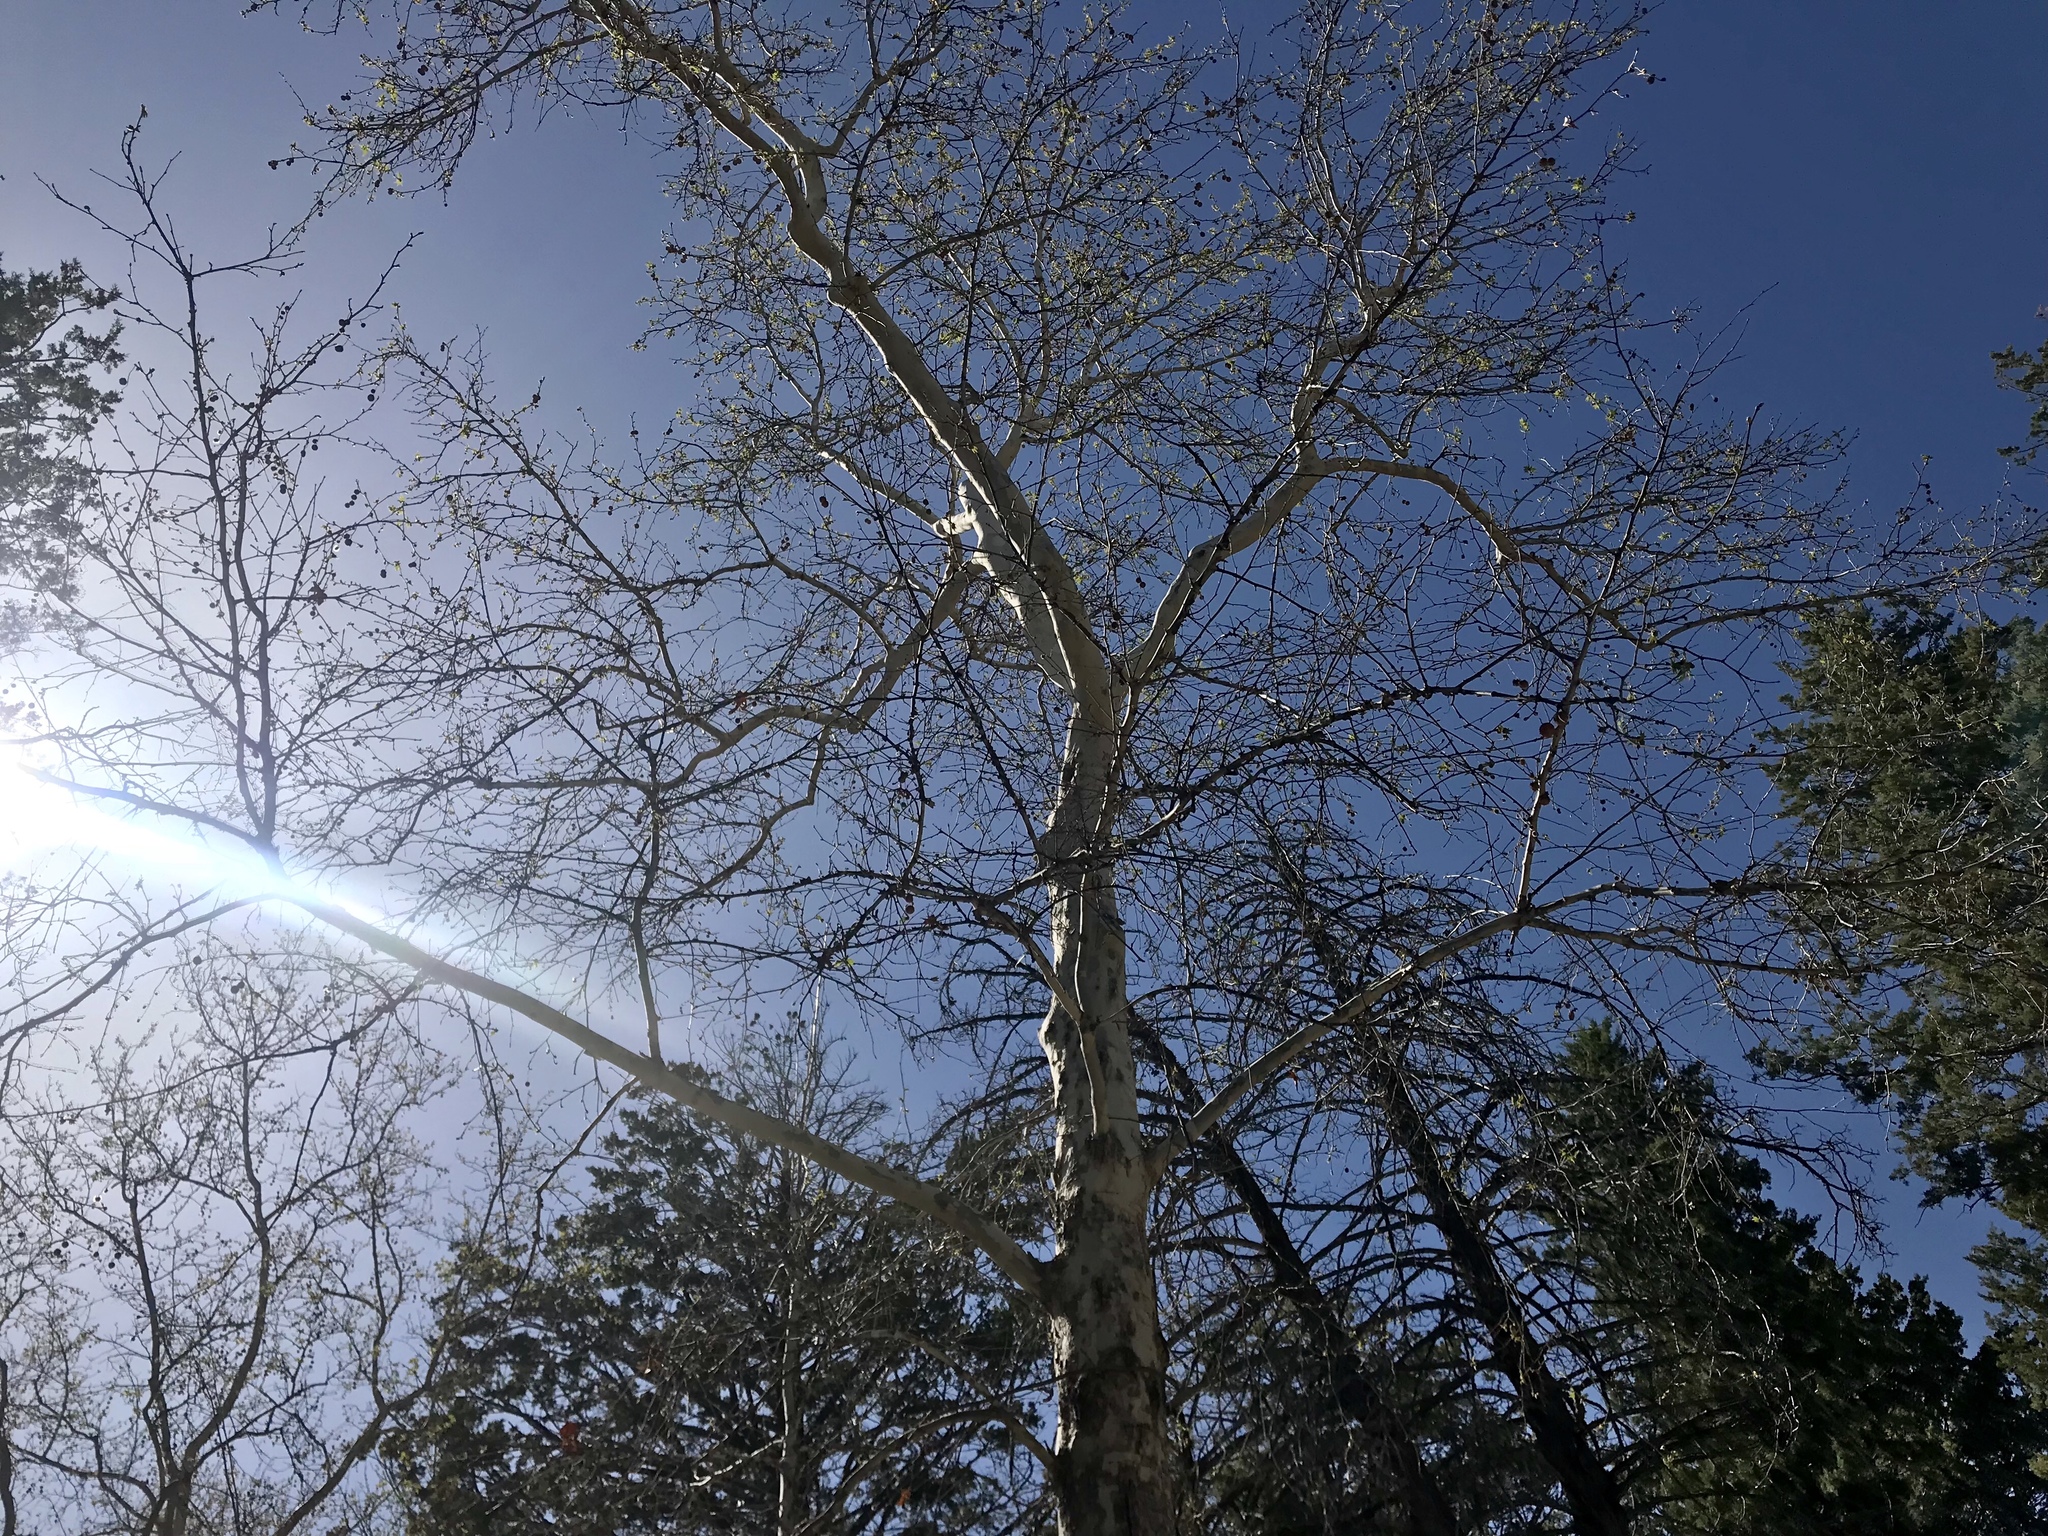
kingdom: Plantae
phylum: Tracheophyta
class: Magnoliopsida
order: Proteales
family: Platanaceae
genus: Platanus
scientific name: Platanus wrightii
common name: Arizona sycamore
